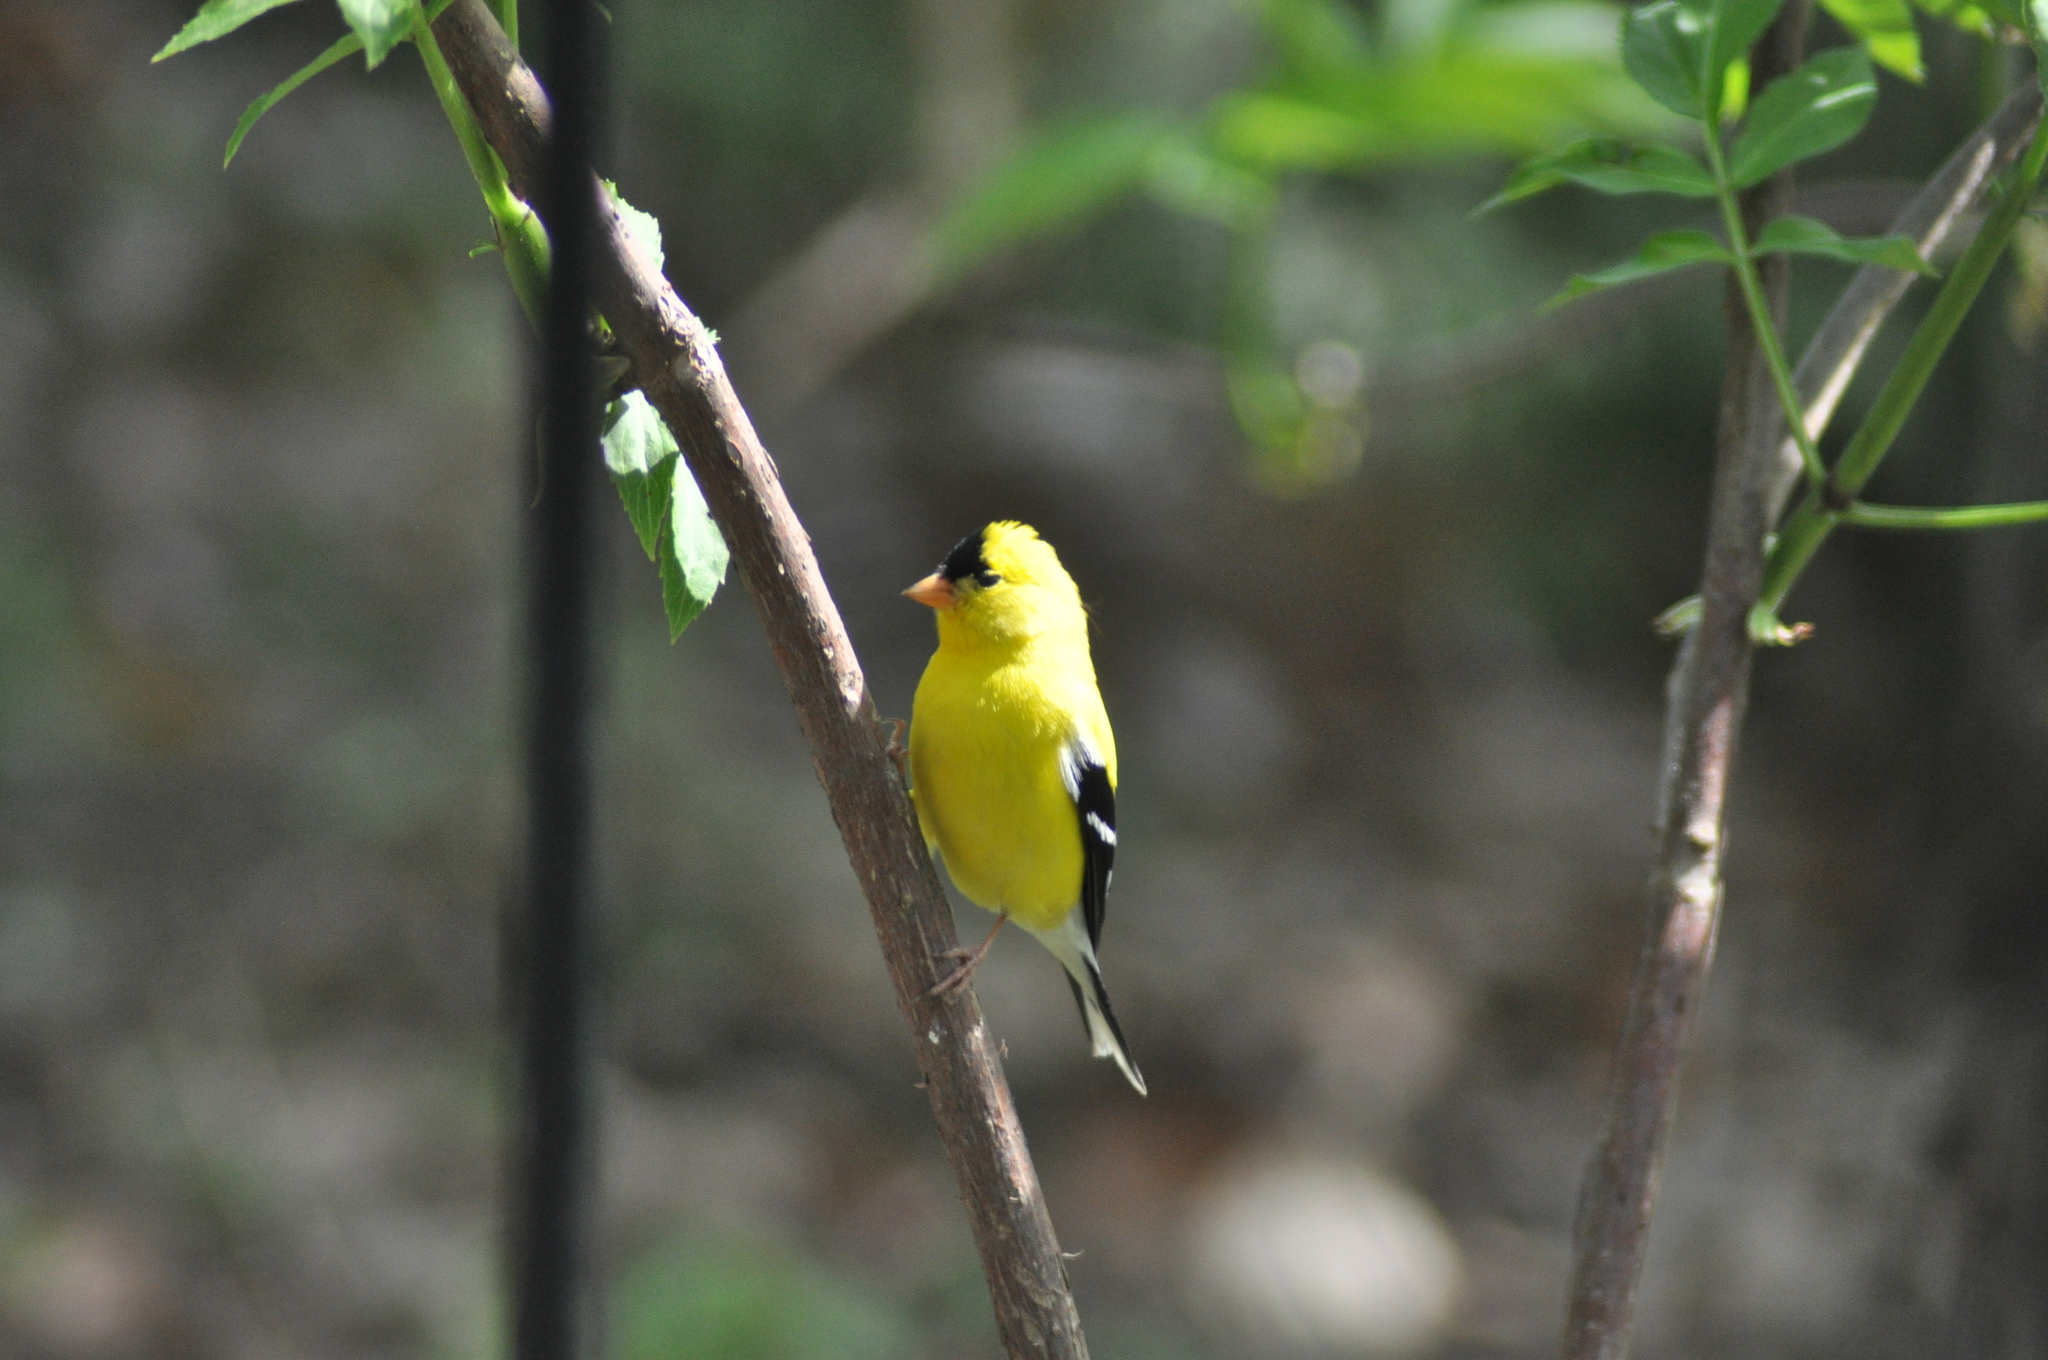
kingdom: Animalia
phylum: Chordata
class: Aves
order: Passeriformes
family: Fringillidae
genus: Spinus
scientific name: Spinus tristis
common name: American goldfinch
